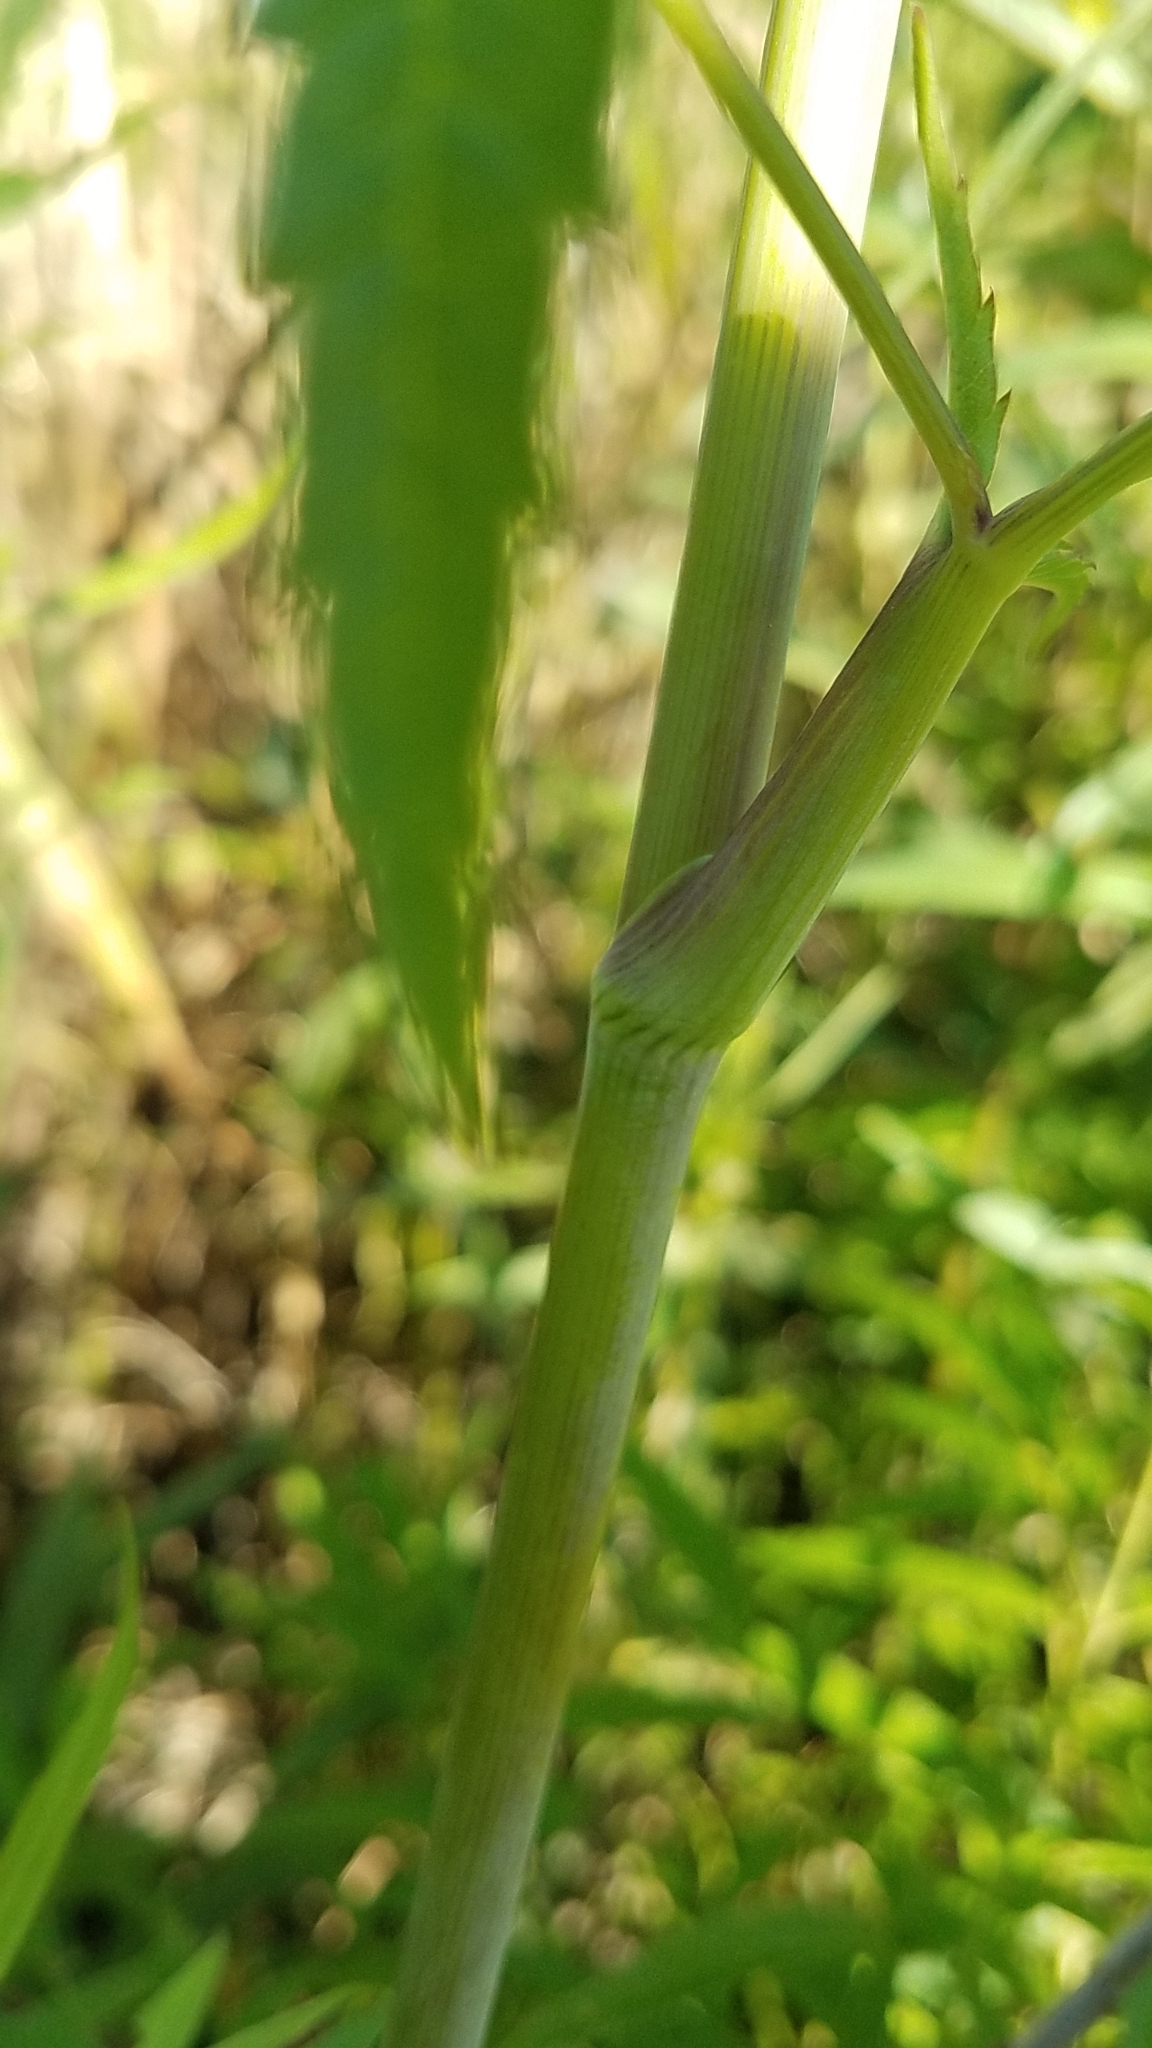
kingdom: Plantae
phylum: Tracheophyta
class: Magnoliopsida
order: Apiales
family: Apiaceae
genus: Cicuta
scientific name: Cicuta maculata
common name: Spotted cowbane
